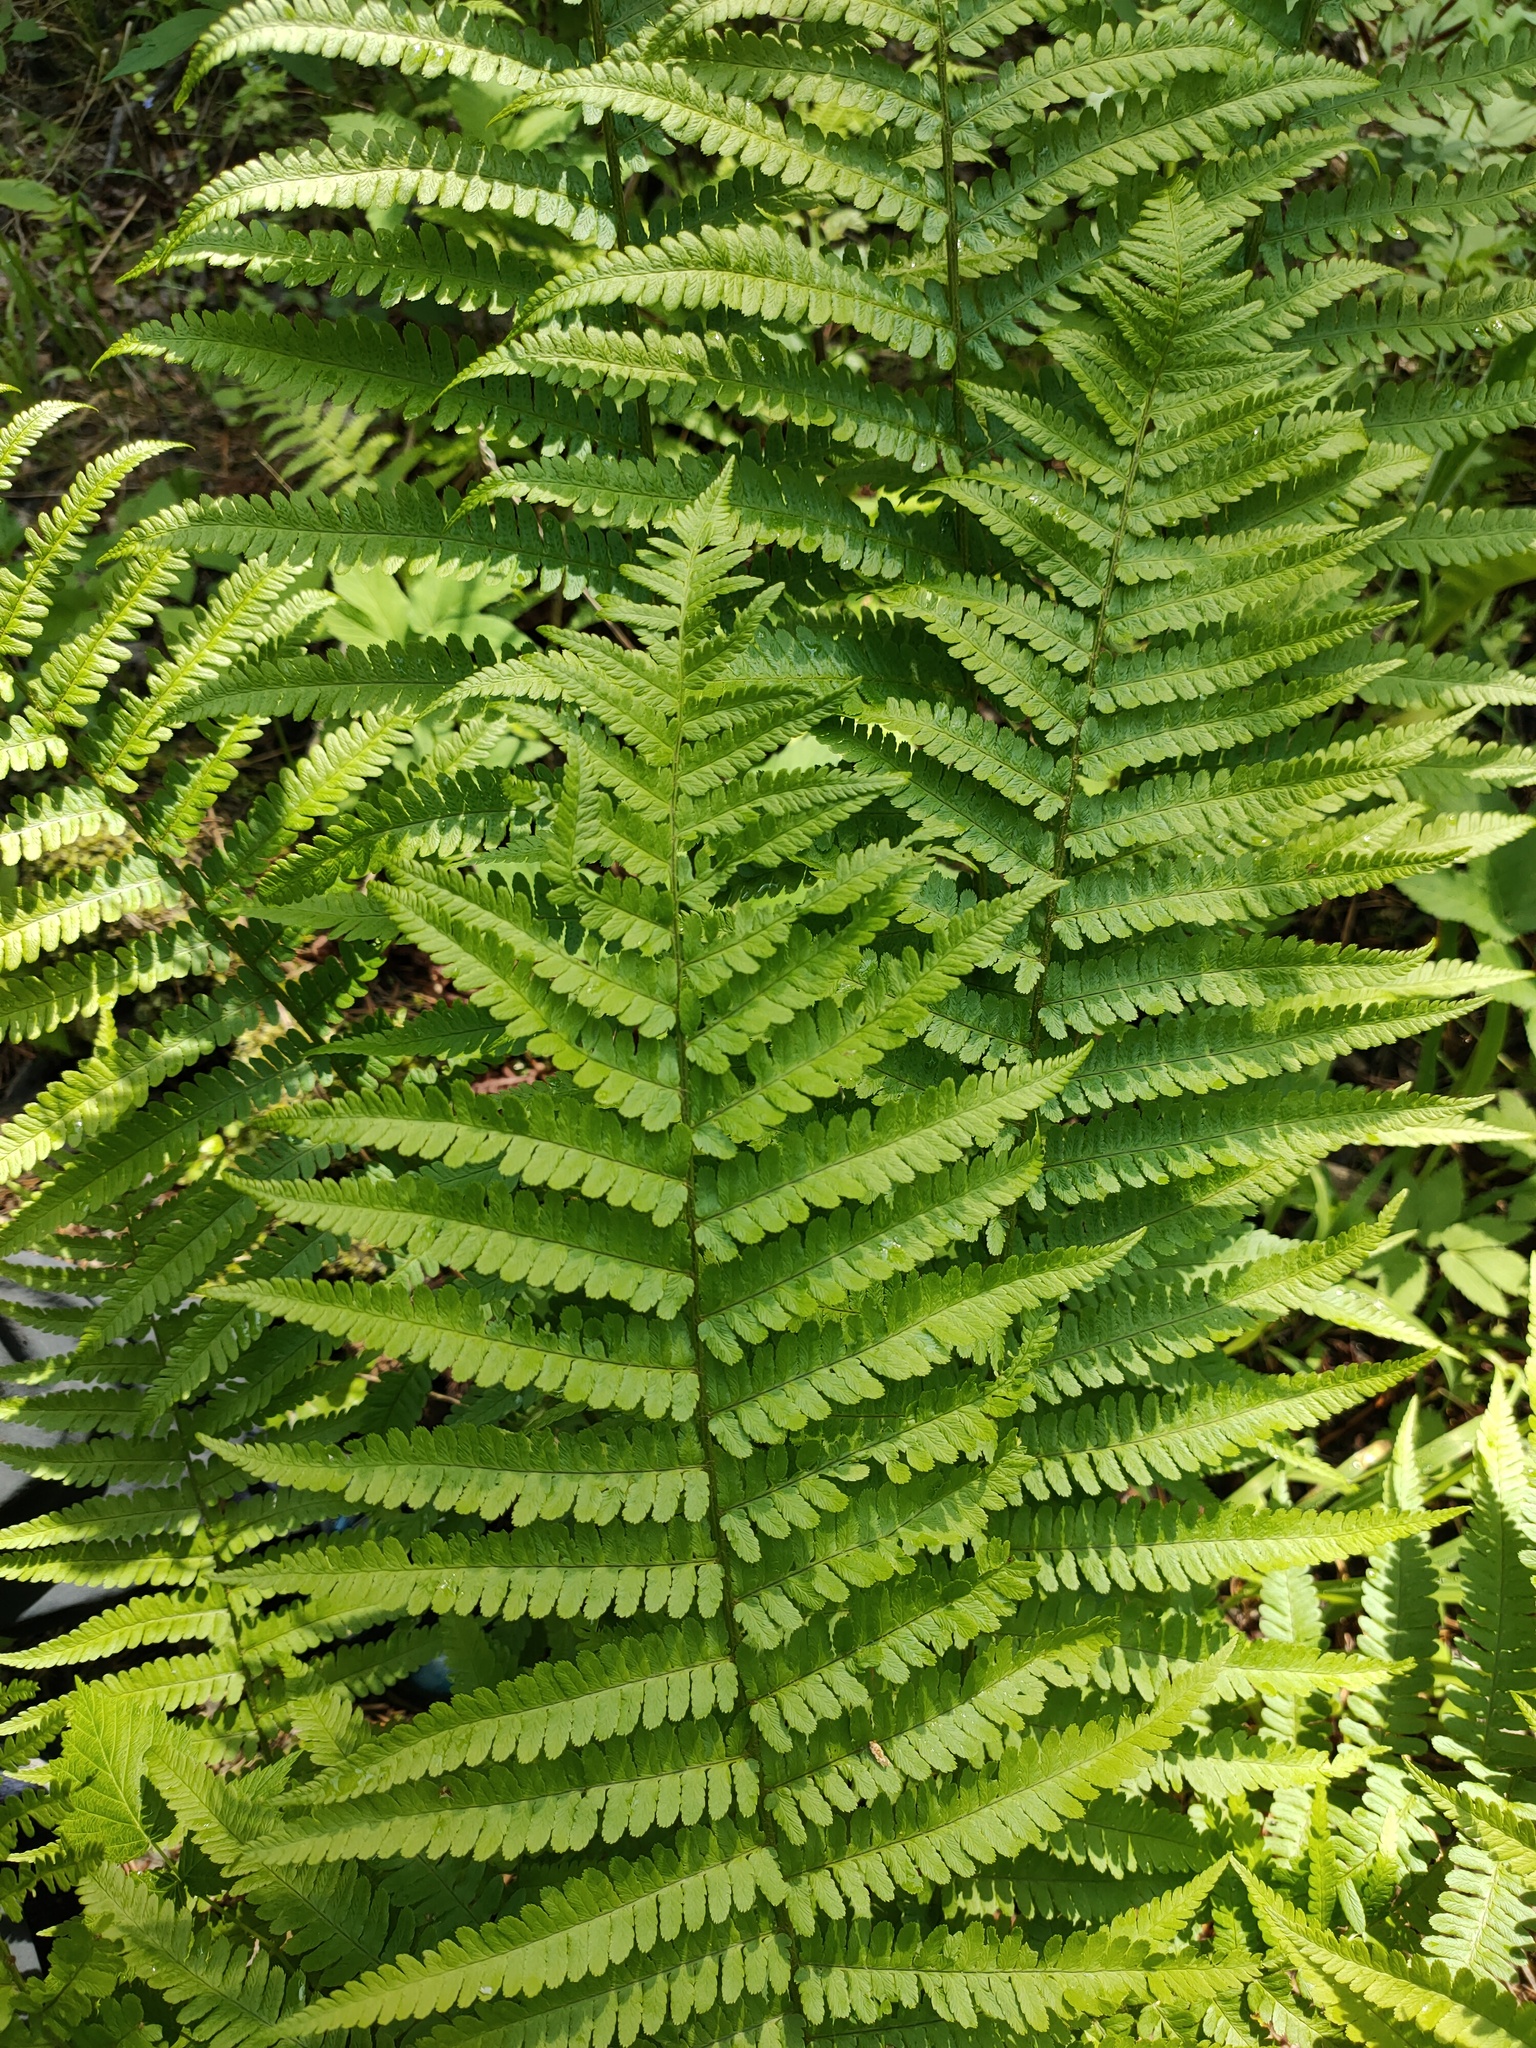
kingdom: Plantae
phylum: Tracheophyta
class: Polypodiopsida
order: Polypodiales
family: Dryopteridaceae
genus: Dryopteris
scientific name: Dryopteris filix-mas
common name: Male fern
